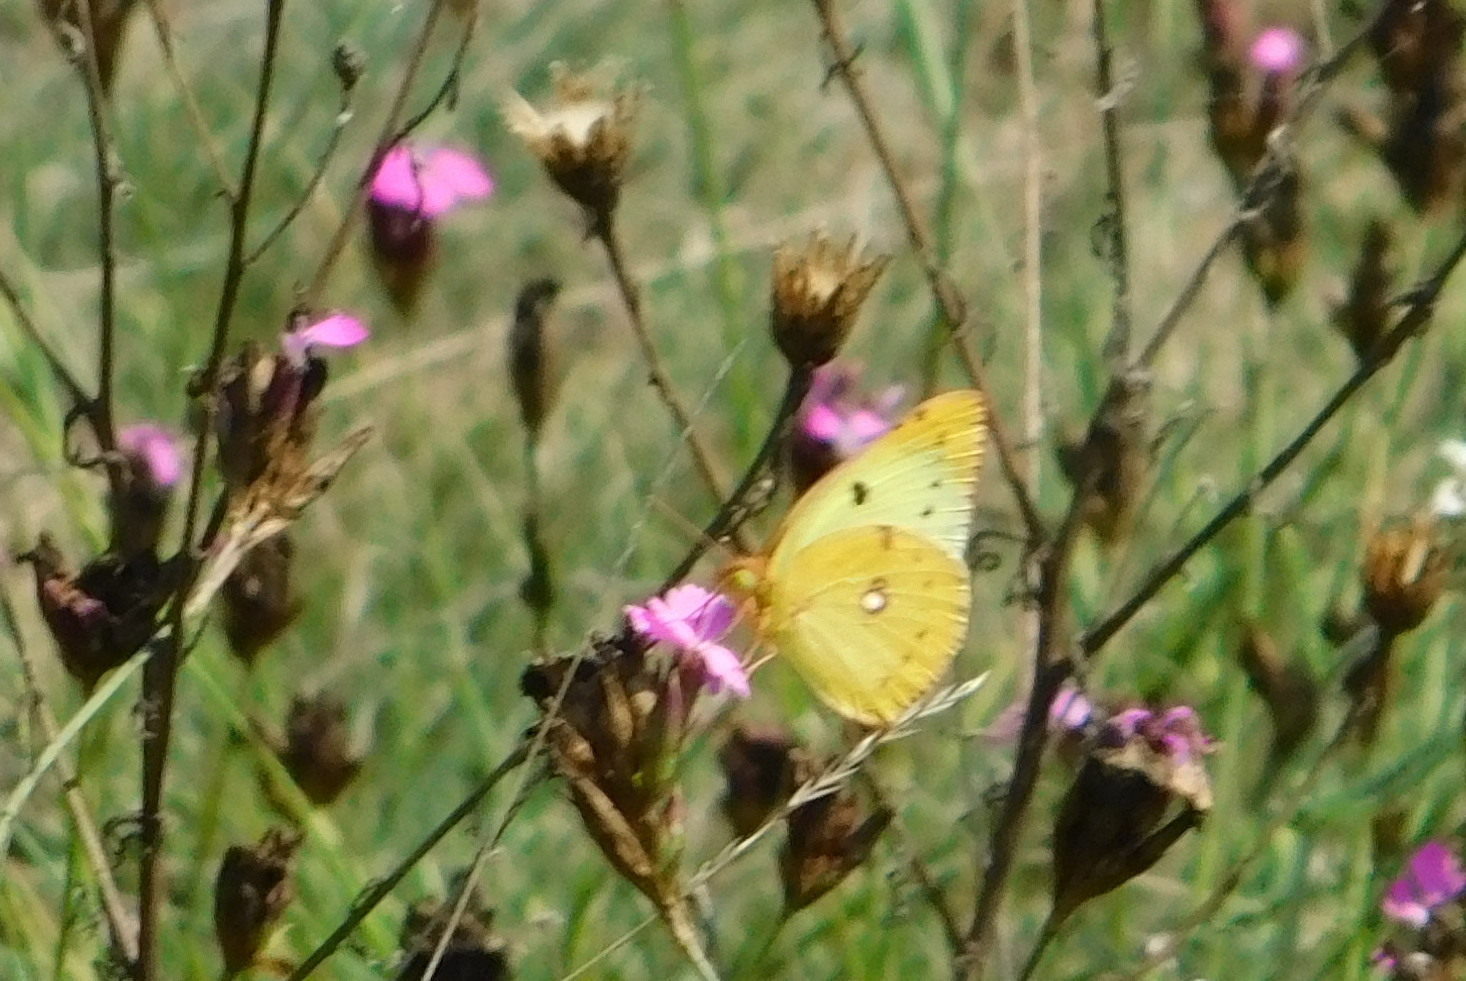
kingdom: Animalia
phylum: Arthropoda
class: Insecta
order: Lepidoptera
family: Pieridae
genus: Colias
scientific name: Colias hyale
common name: Pale clouded yellow
